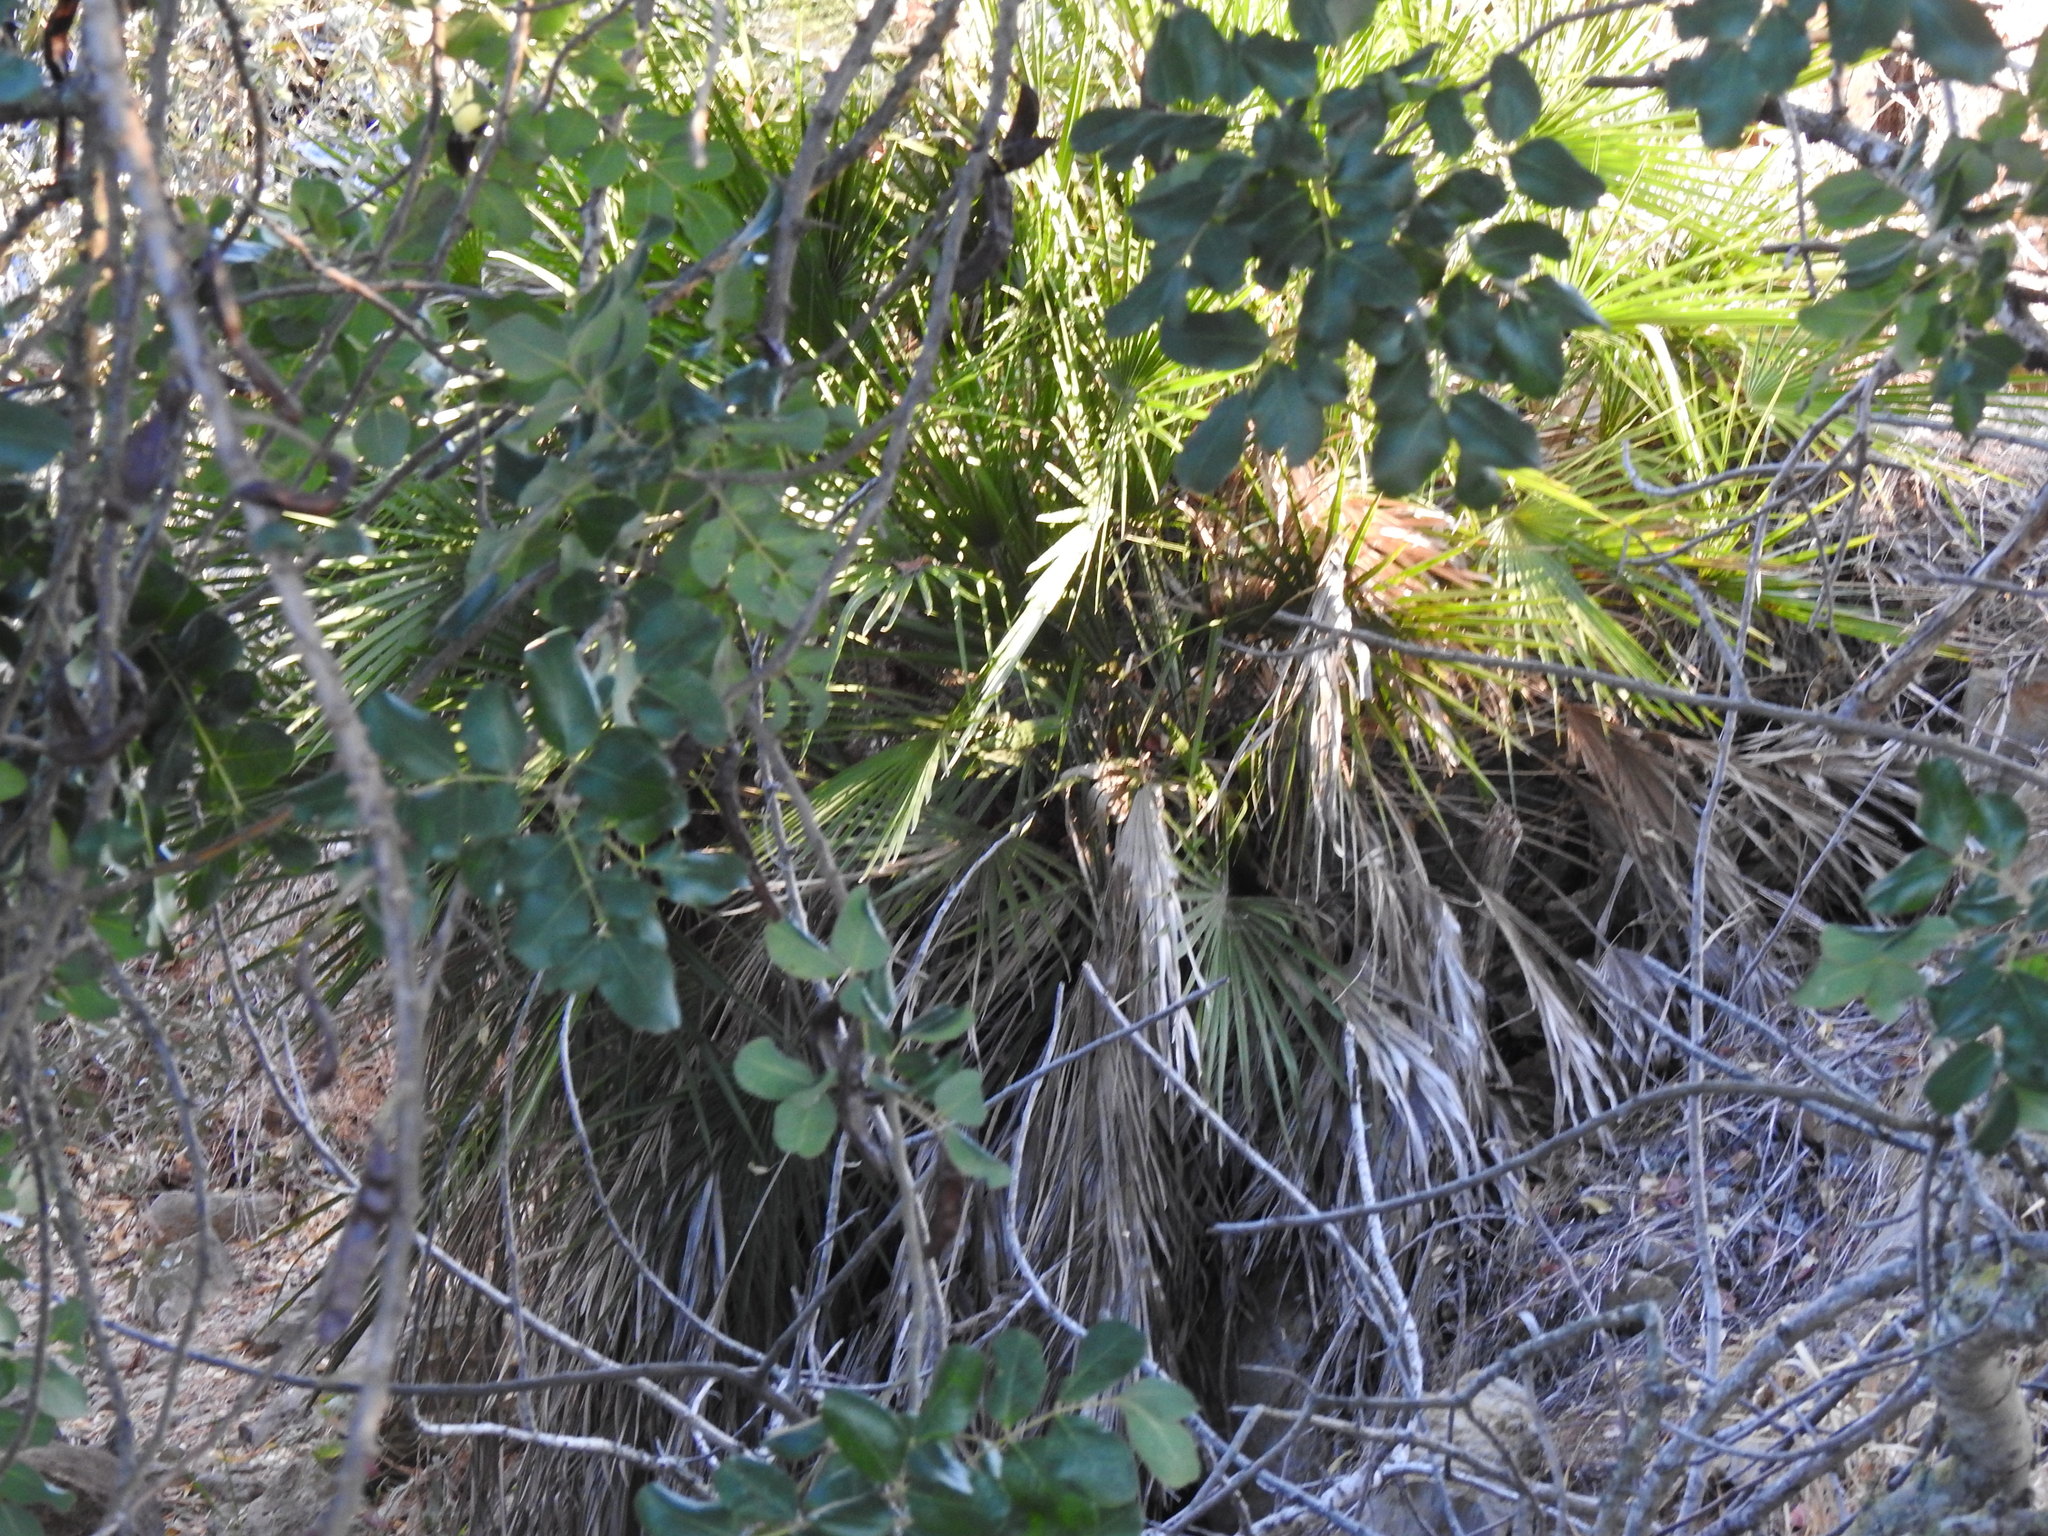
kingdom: Plantae
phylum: Tracheophyta
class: Liliopsida
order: Arecales
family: Arecaceae
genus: Chamaerops
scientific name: Chamaerops humilis
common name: Dwarf fan palm
